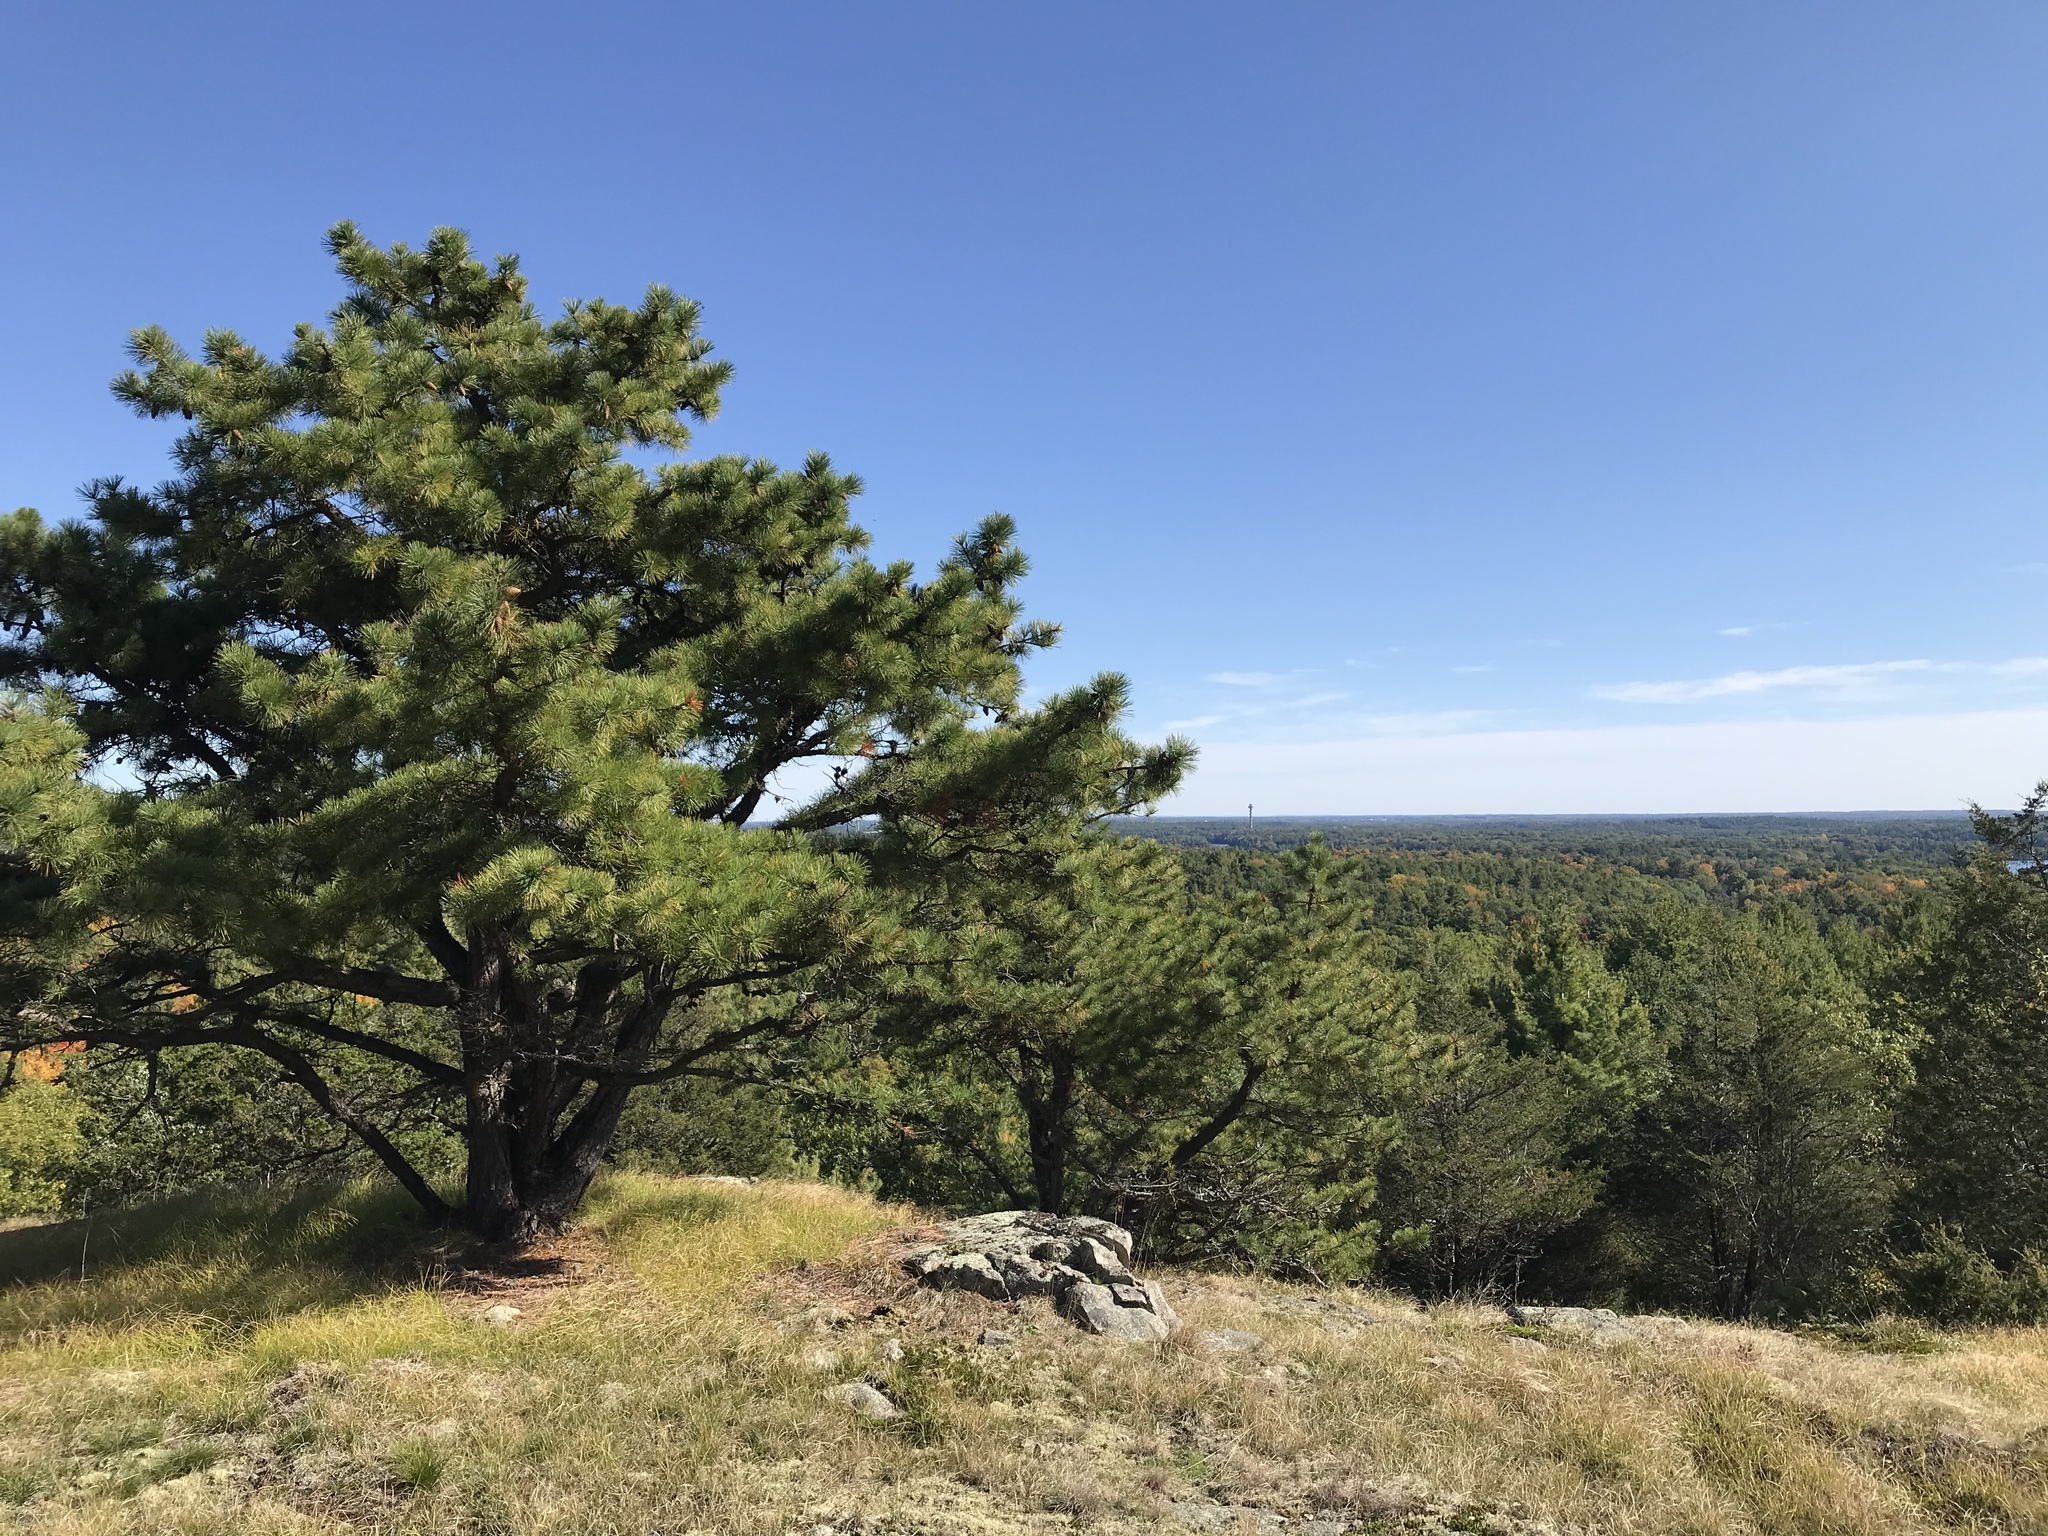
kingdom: Plantae
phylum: Tracheophyta
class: Pinopsida
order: Pinales
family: Pinaceae
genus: Pinus
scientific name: Pinus rigida
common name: Pitch pine
